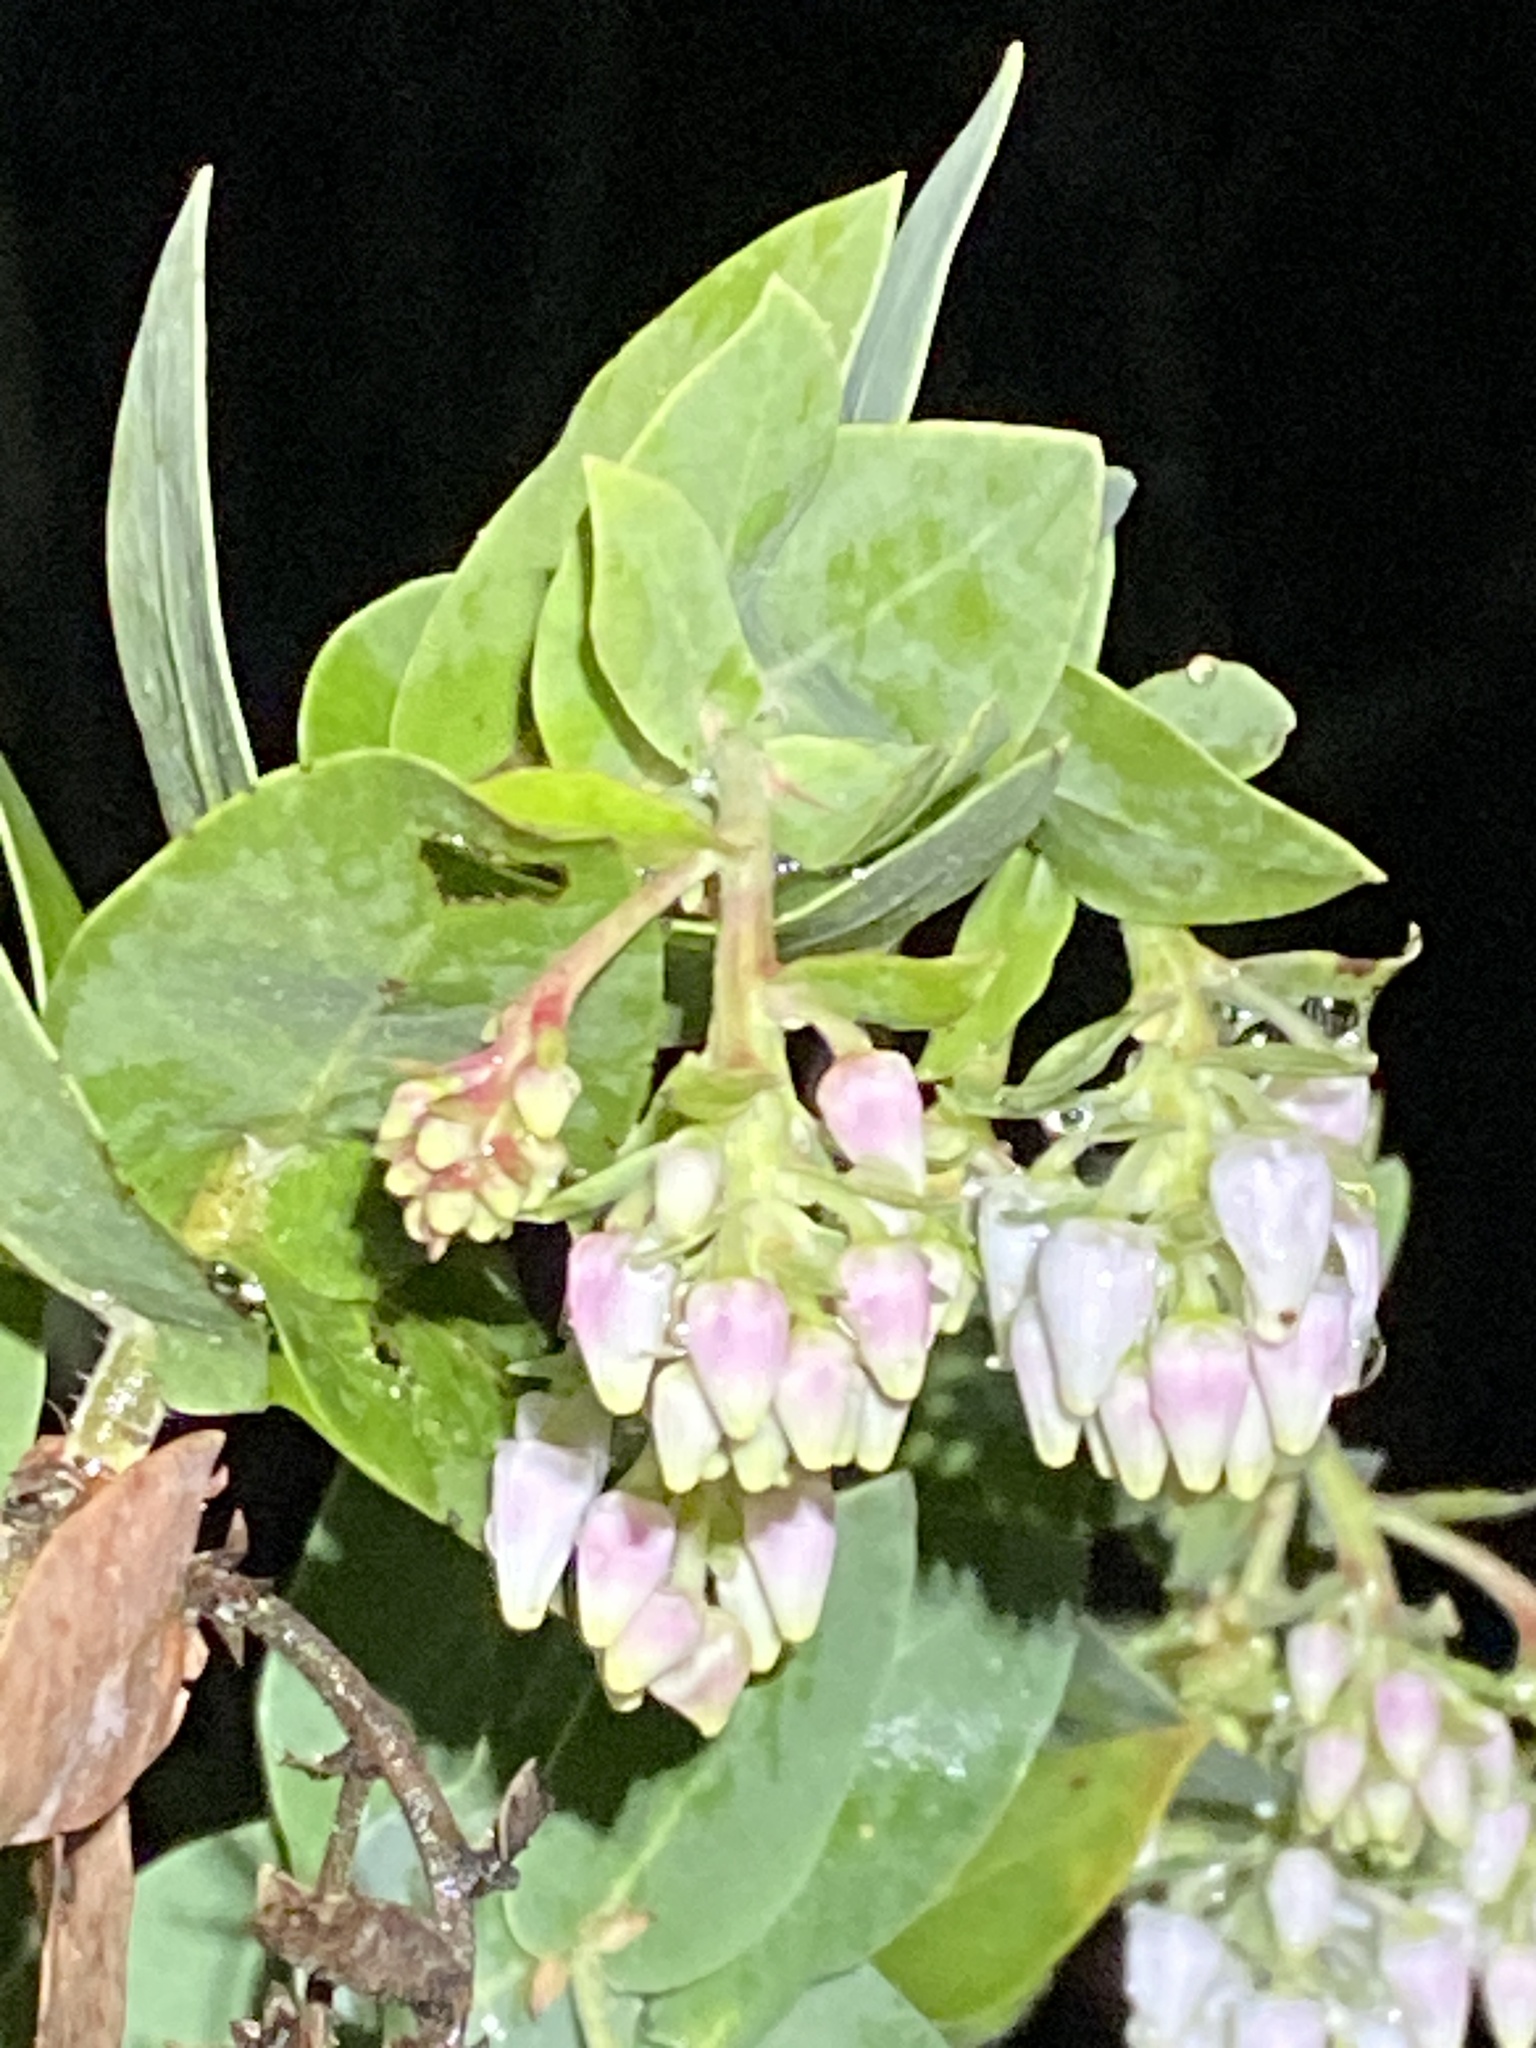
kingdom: Plantae
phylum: Tracheophyta
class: Magnoliopsida
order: Ericales
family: Ericaceae
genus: Arctostaphylos
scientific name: Arctostaphylos pallida
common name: Pallid manzanita
